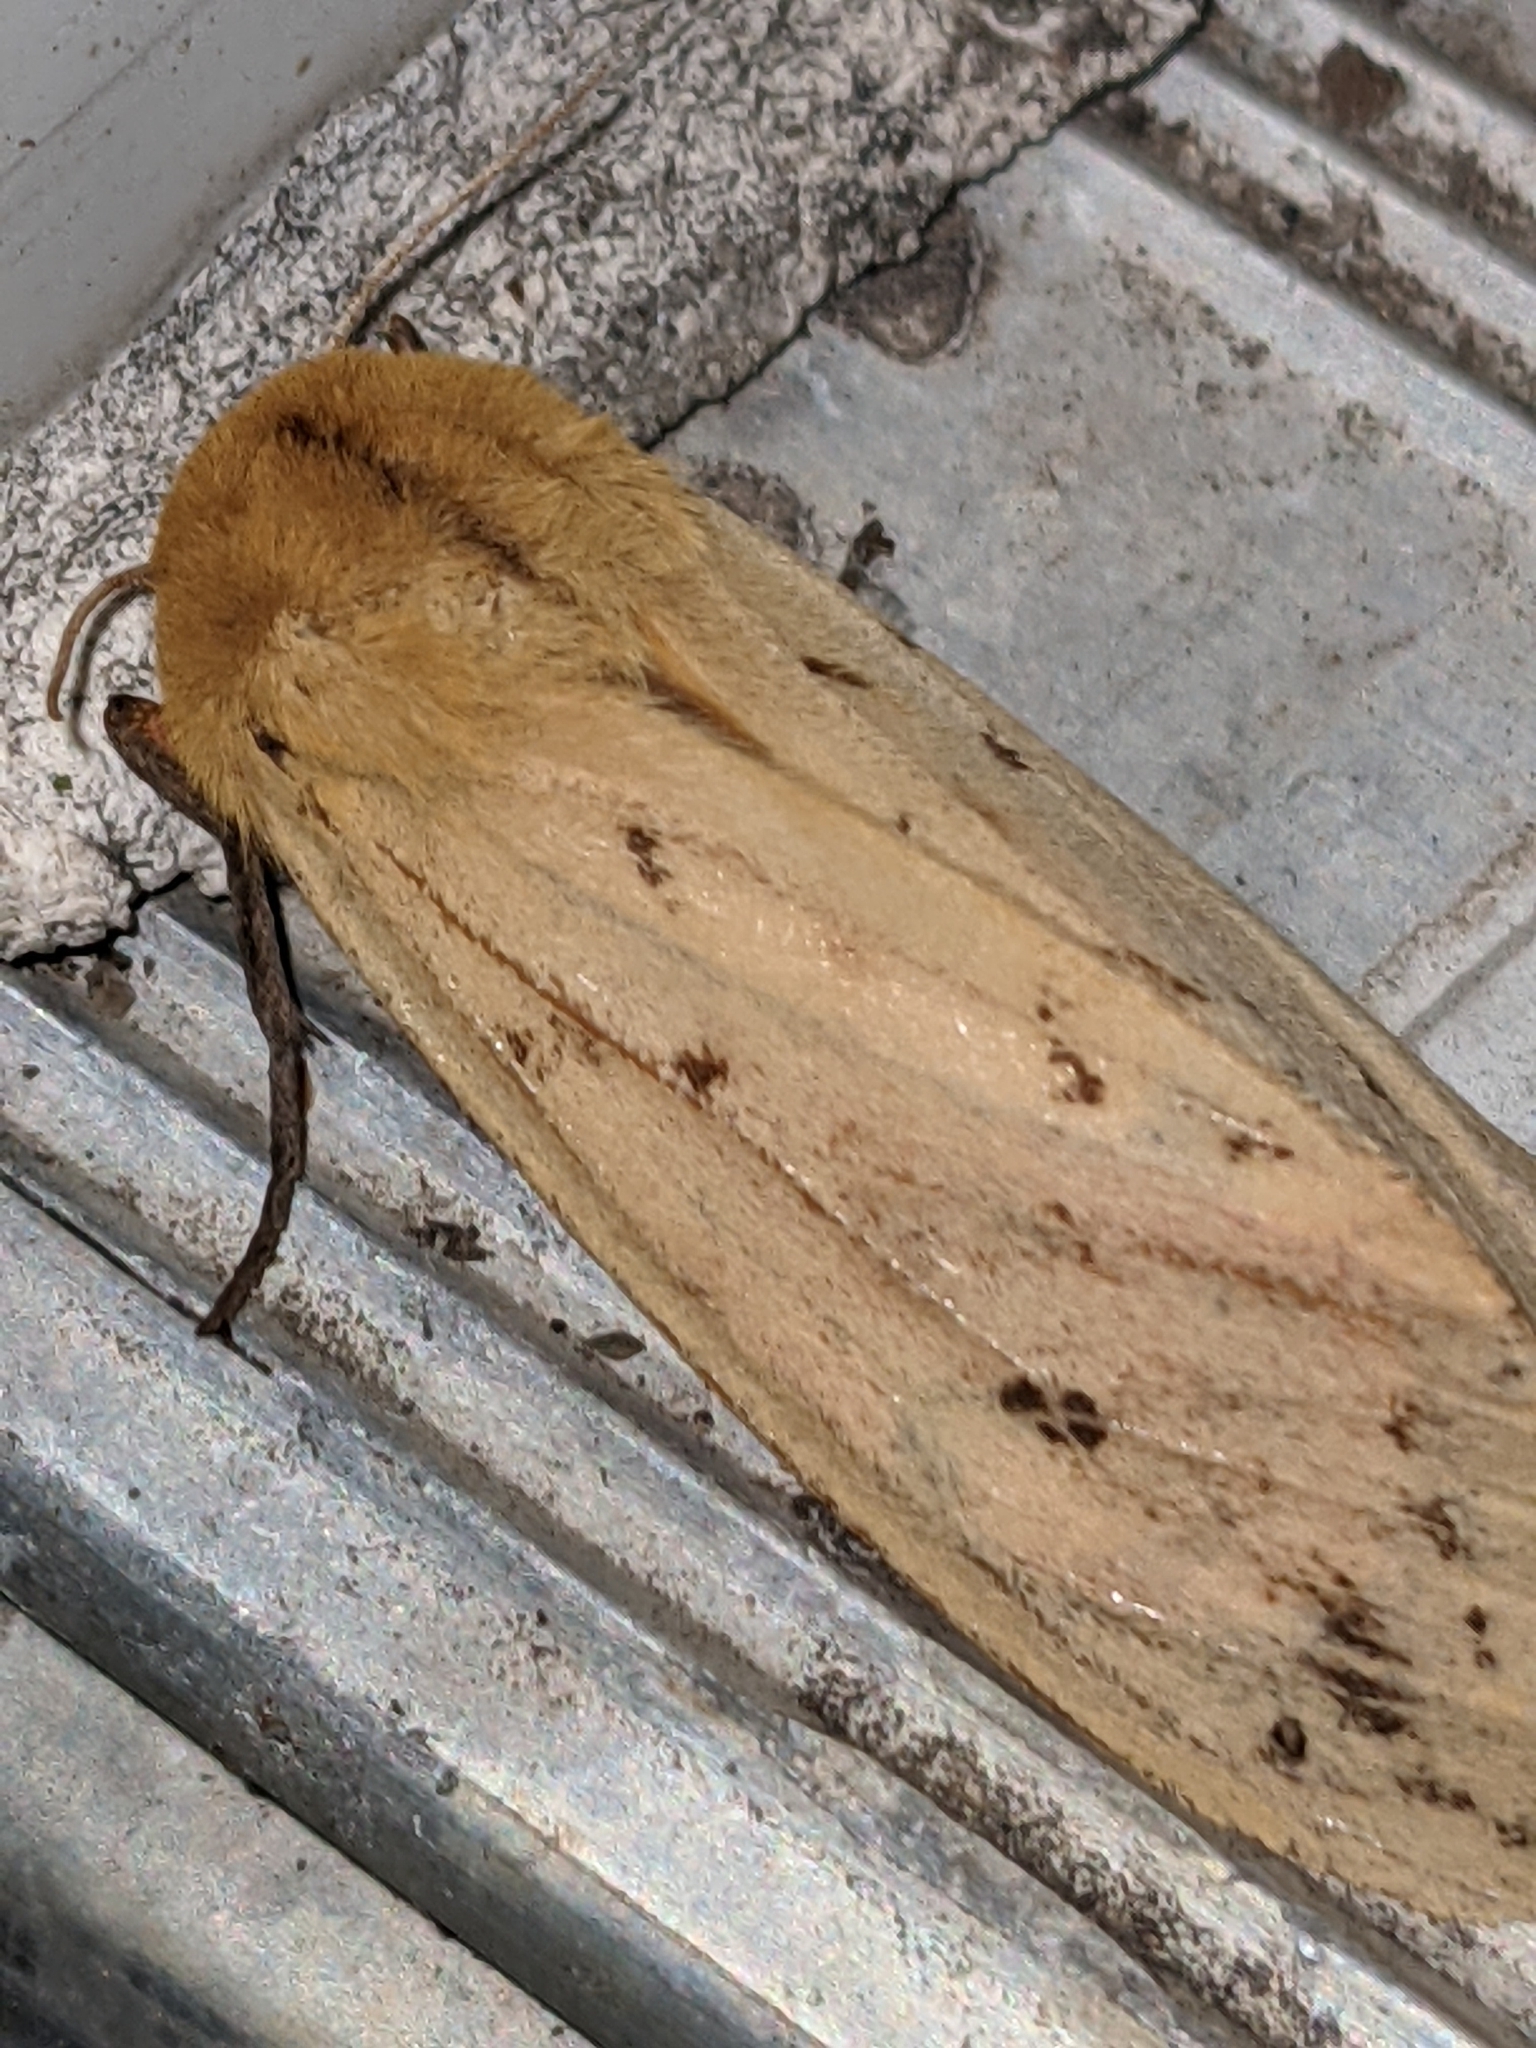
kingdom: Animalia
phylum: Arthropoda
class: Insecta
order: Lepidoptera
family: Erebidae
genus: Pyrrharctia
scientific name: Pyrrharctia isabella
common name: Isabella tiger moth
